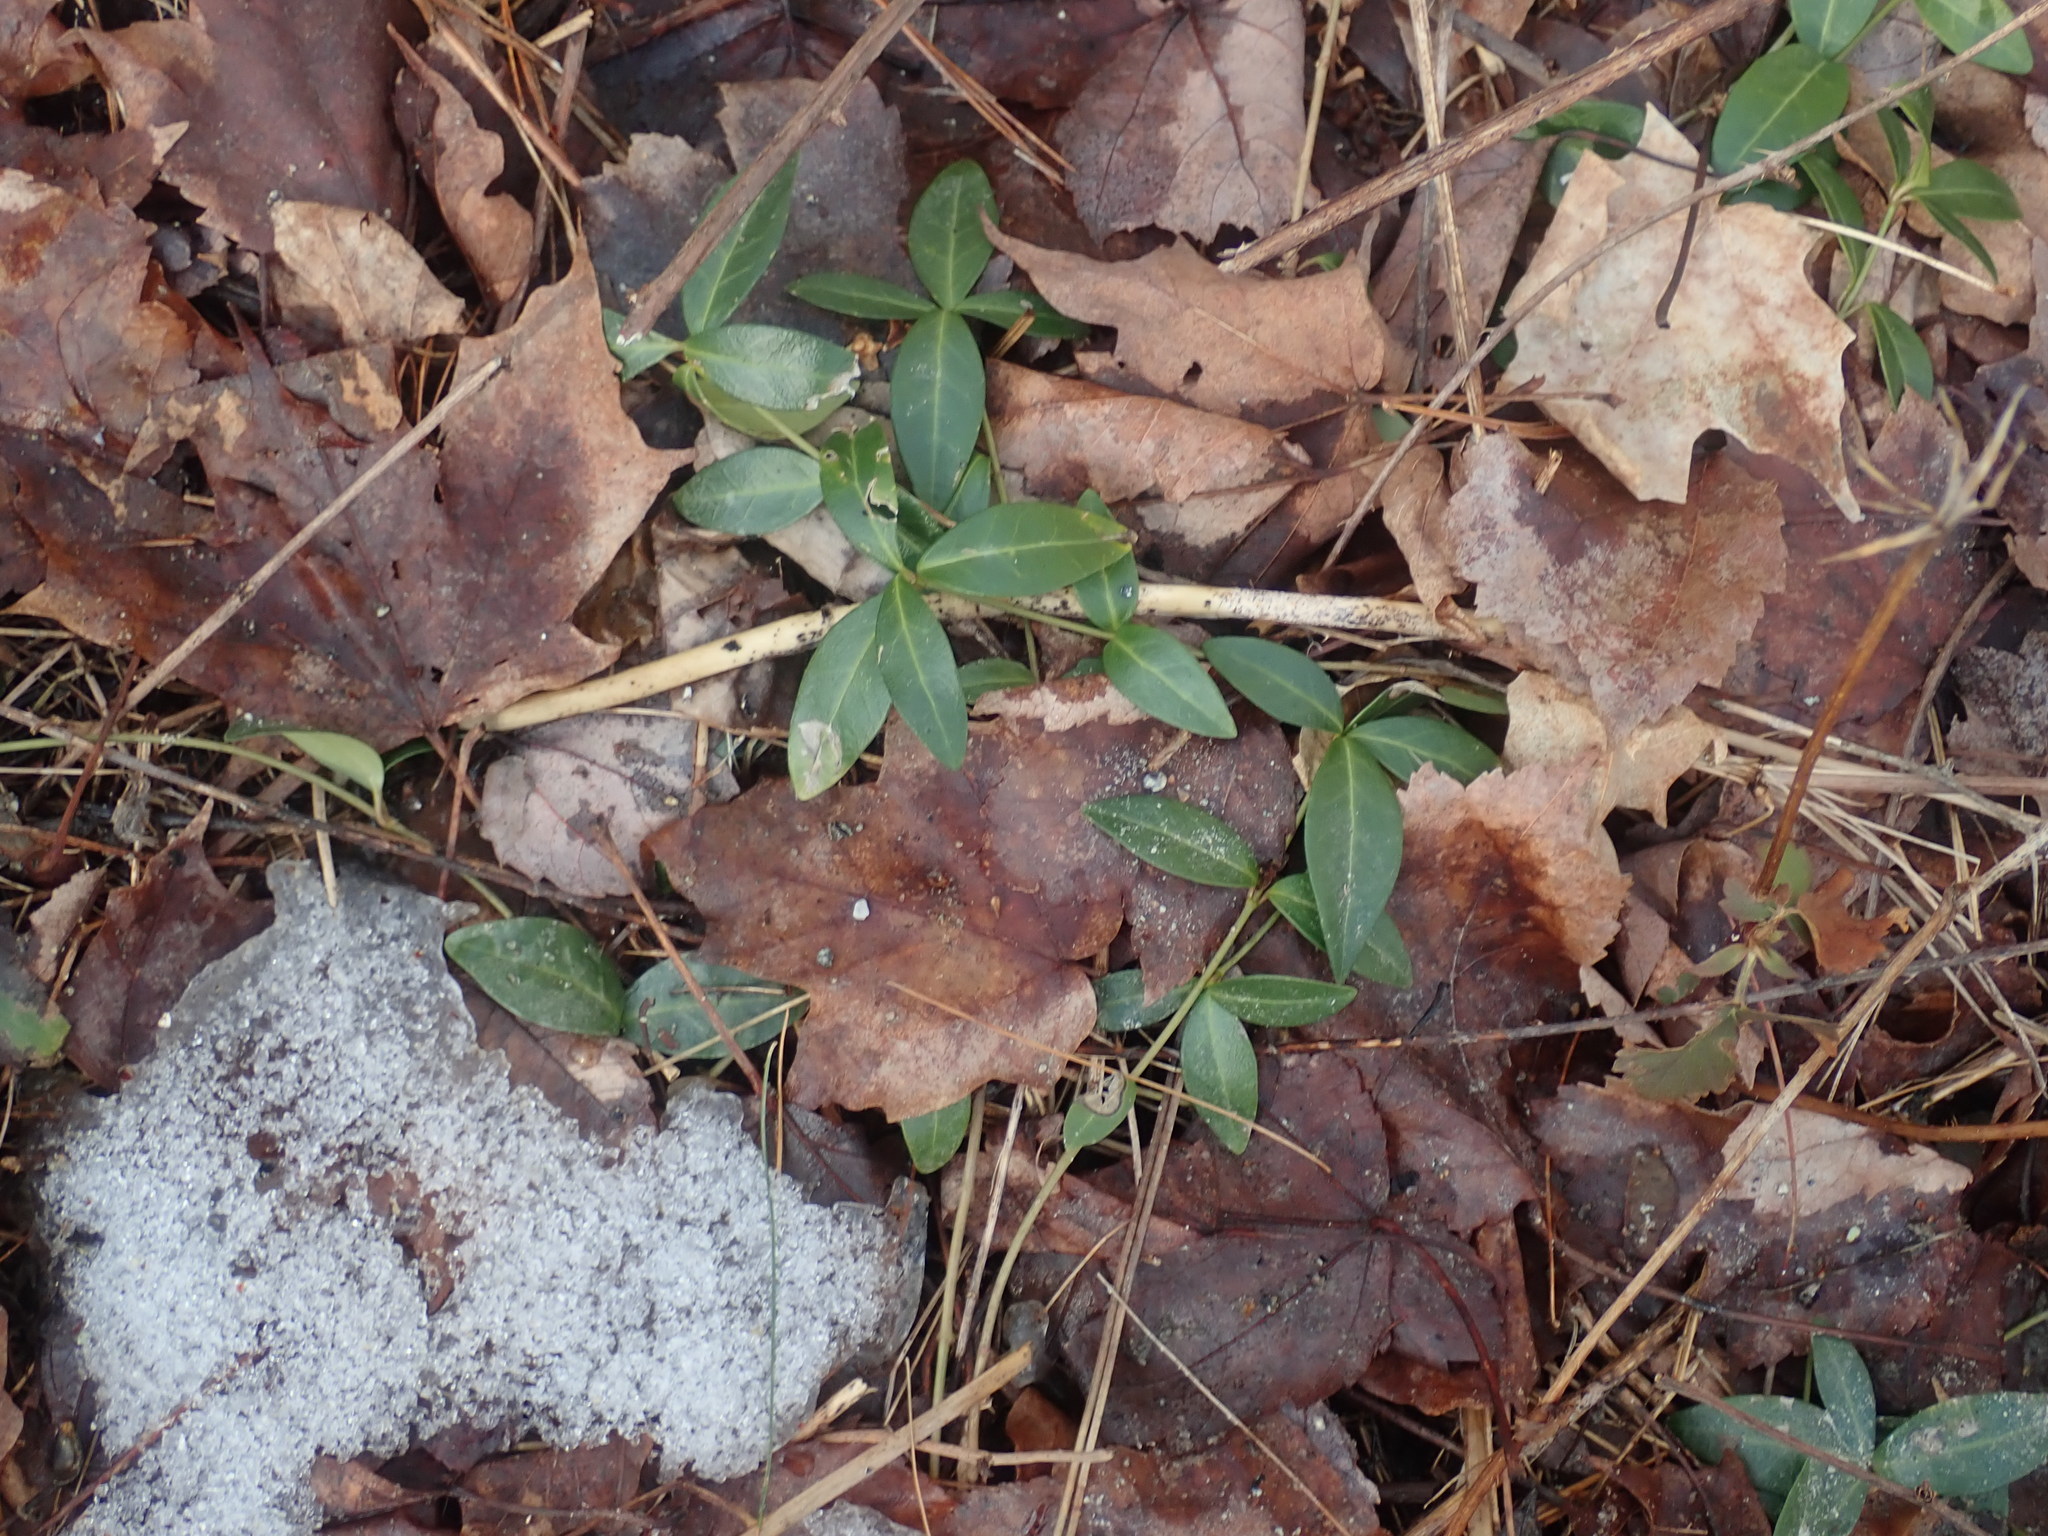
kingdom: Plantae
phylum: Tracheophyta
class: Magnoliopsida
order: Gentianales
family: Apocynaceae
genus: Vinca
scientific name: Vinca minor
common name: Lesser periwinkle
